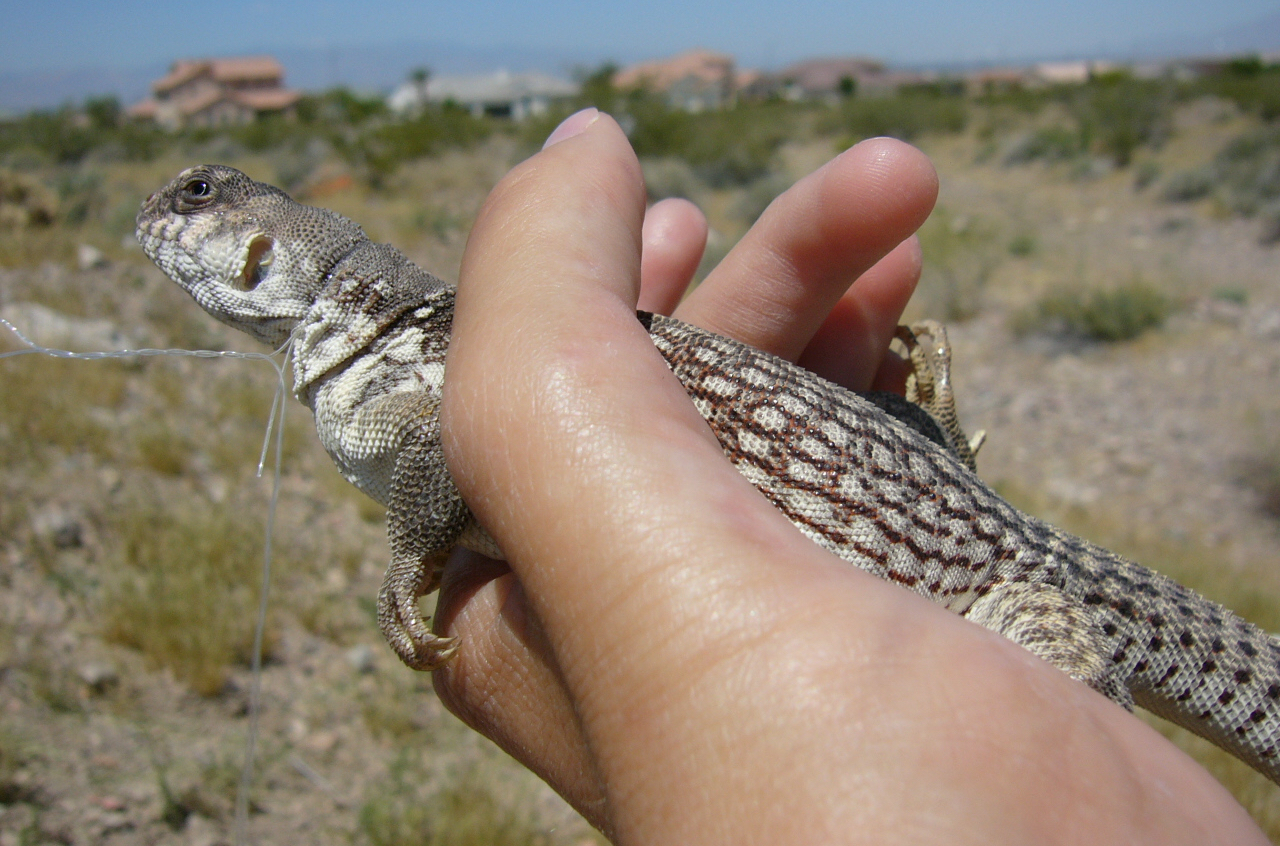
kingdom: Animalia
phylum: Chordata
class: Squamata
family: Iguanidae
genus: Dipsosaurus
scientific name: Dipsosaurus dorsalis
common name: Desert iguana
